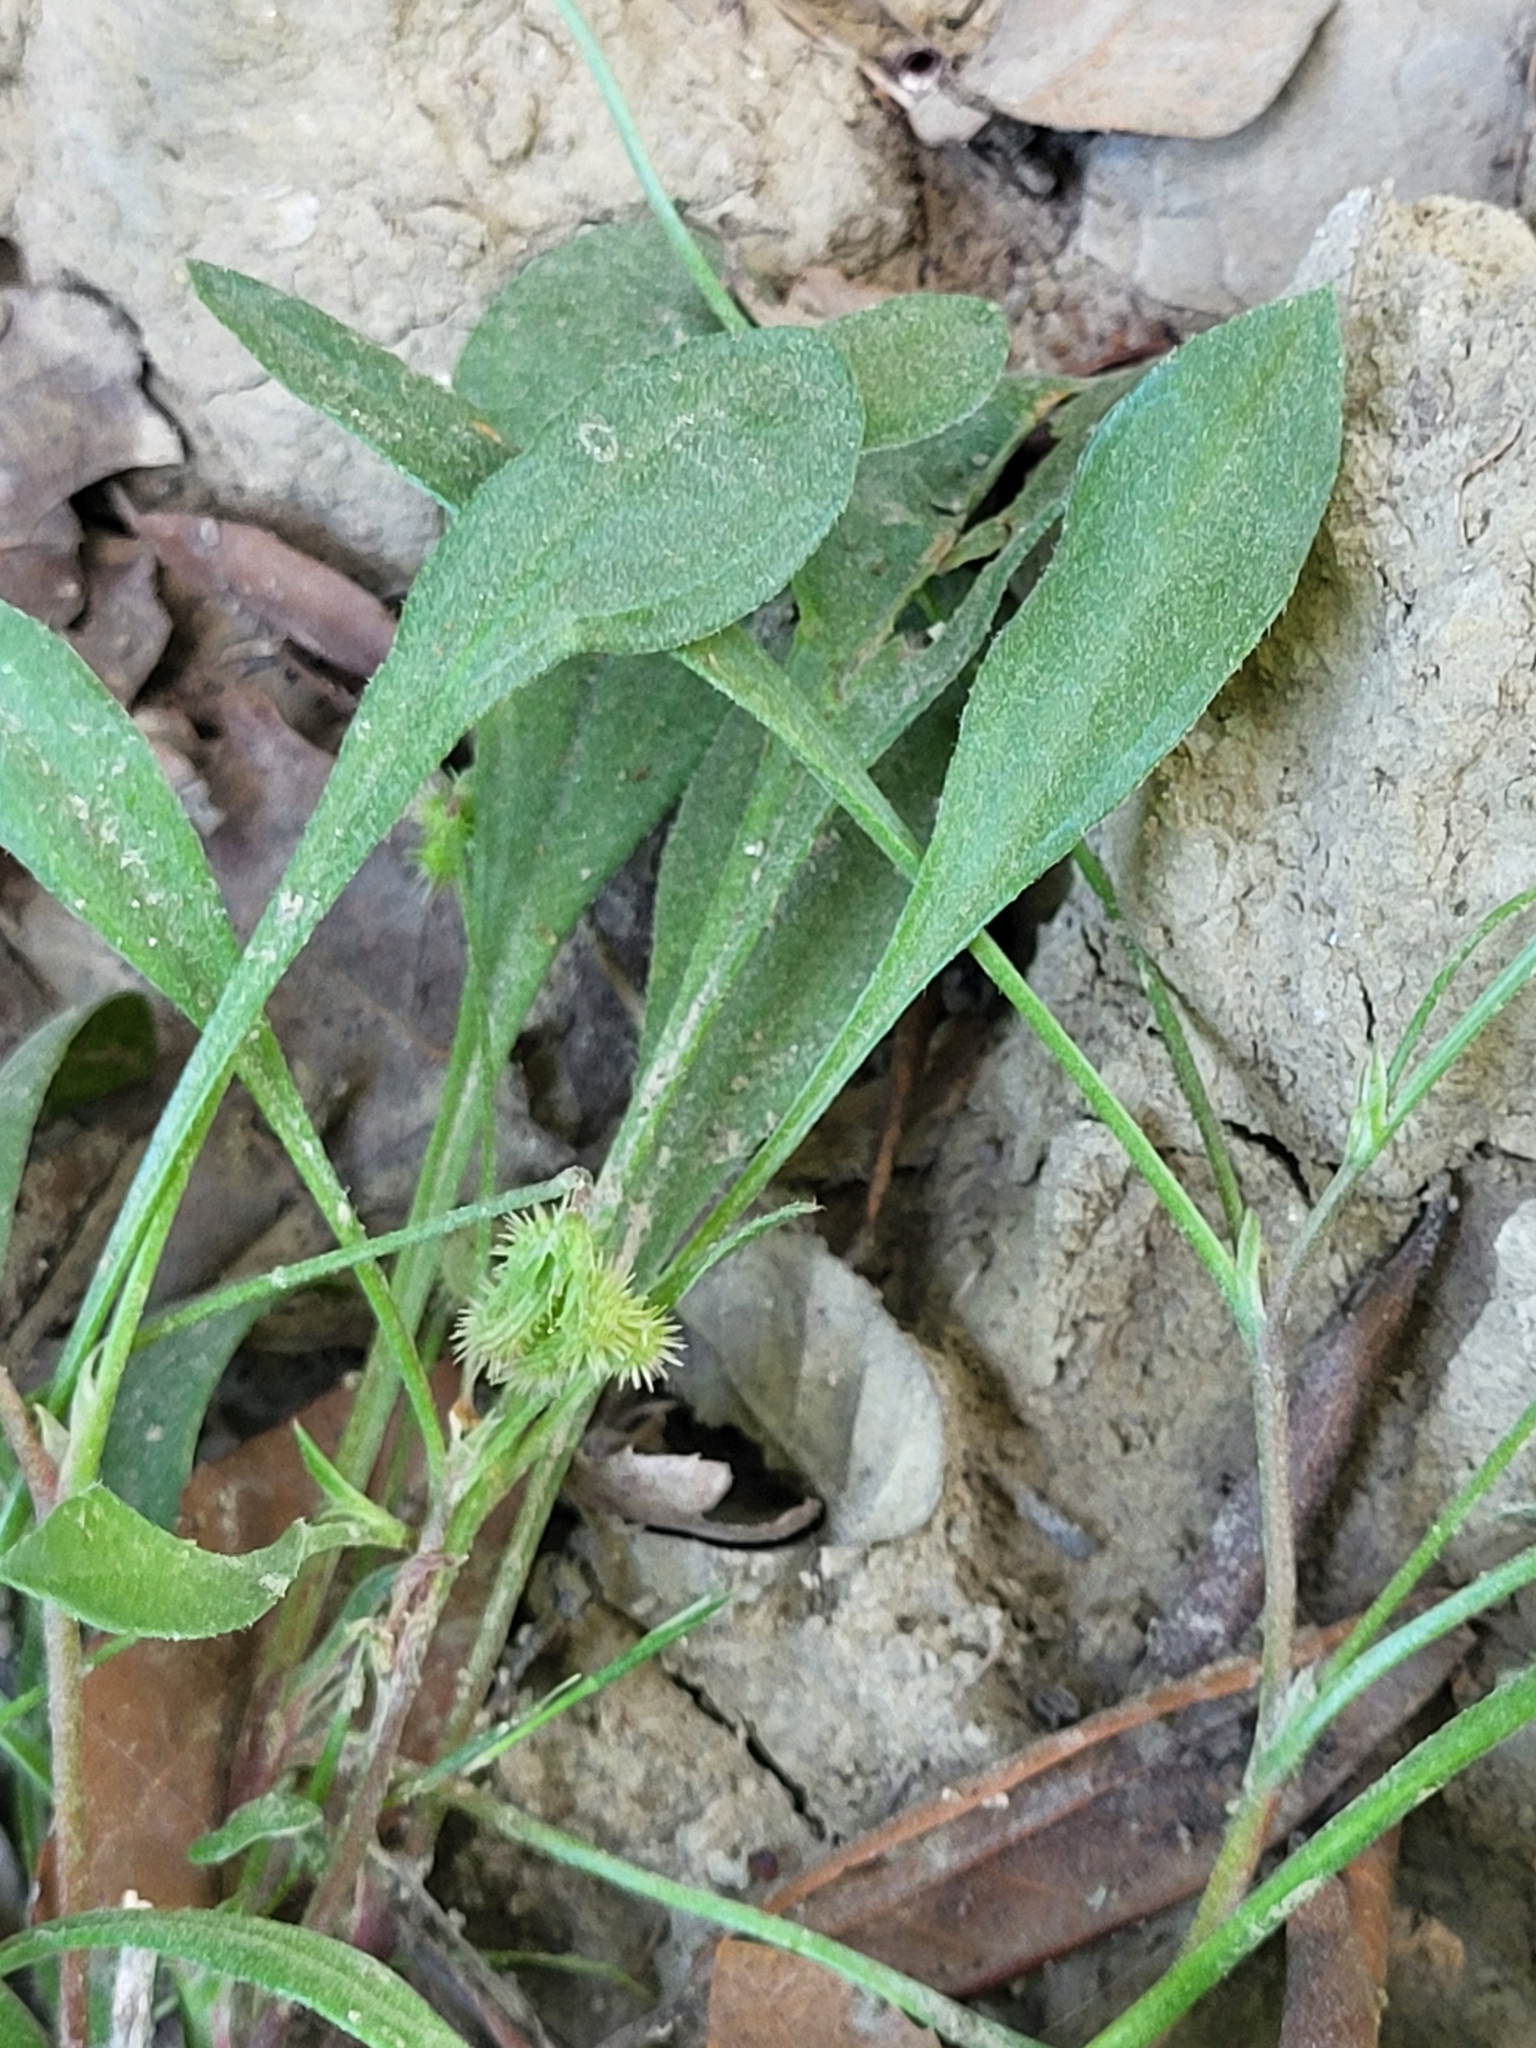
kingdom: Plantae
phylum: Tracheophyta
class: Magnoliopsida
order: Fabales
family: Fabaceae
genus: Scorpiurus
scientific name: Scorpiurus muricatus
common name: Caterpillar-plant
